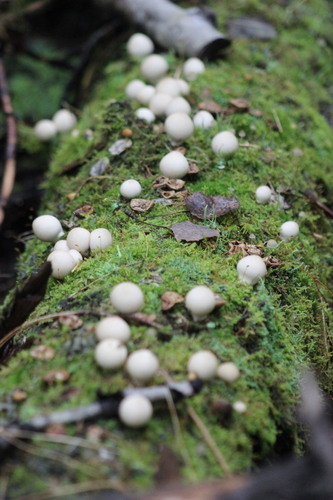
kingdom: Fungi
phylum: Basidiomycota
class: Agaricomycetes
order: Agaricales
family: Lycoperdaceae
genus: Apioperdon
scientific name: Apioperdon pyriforme
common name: Pear-shaped puffball
